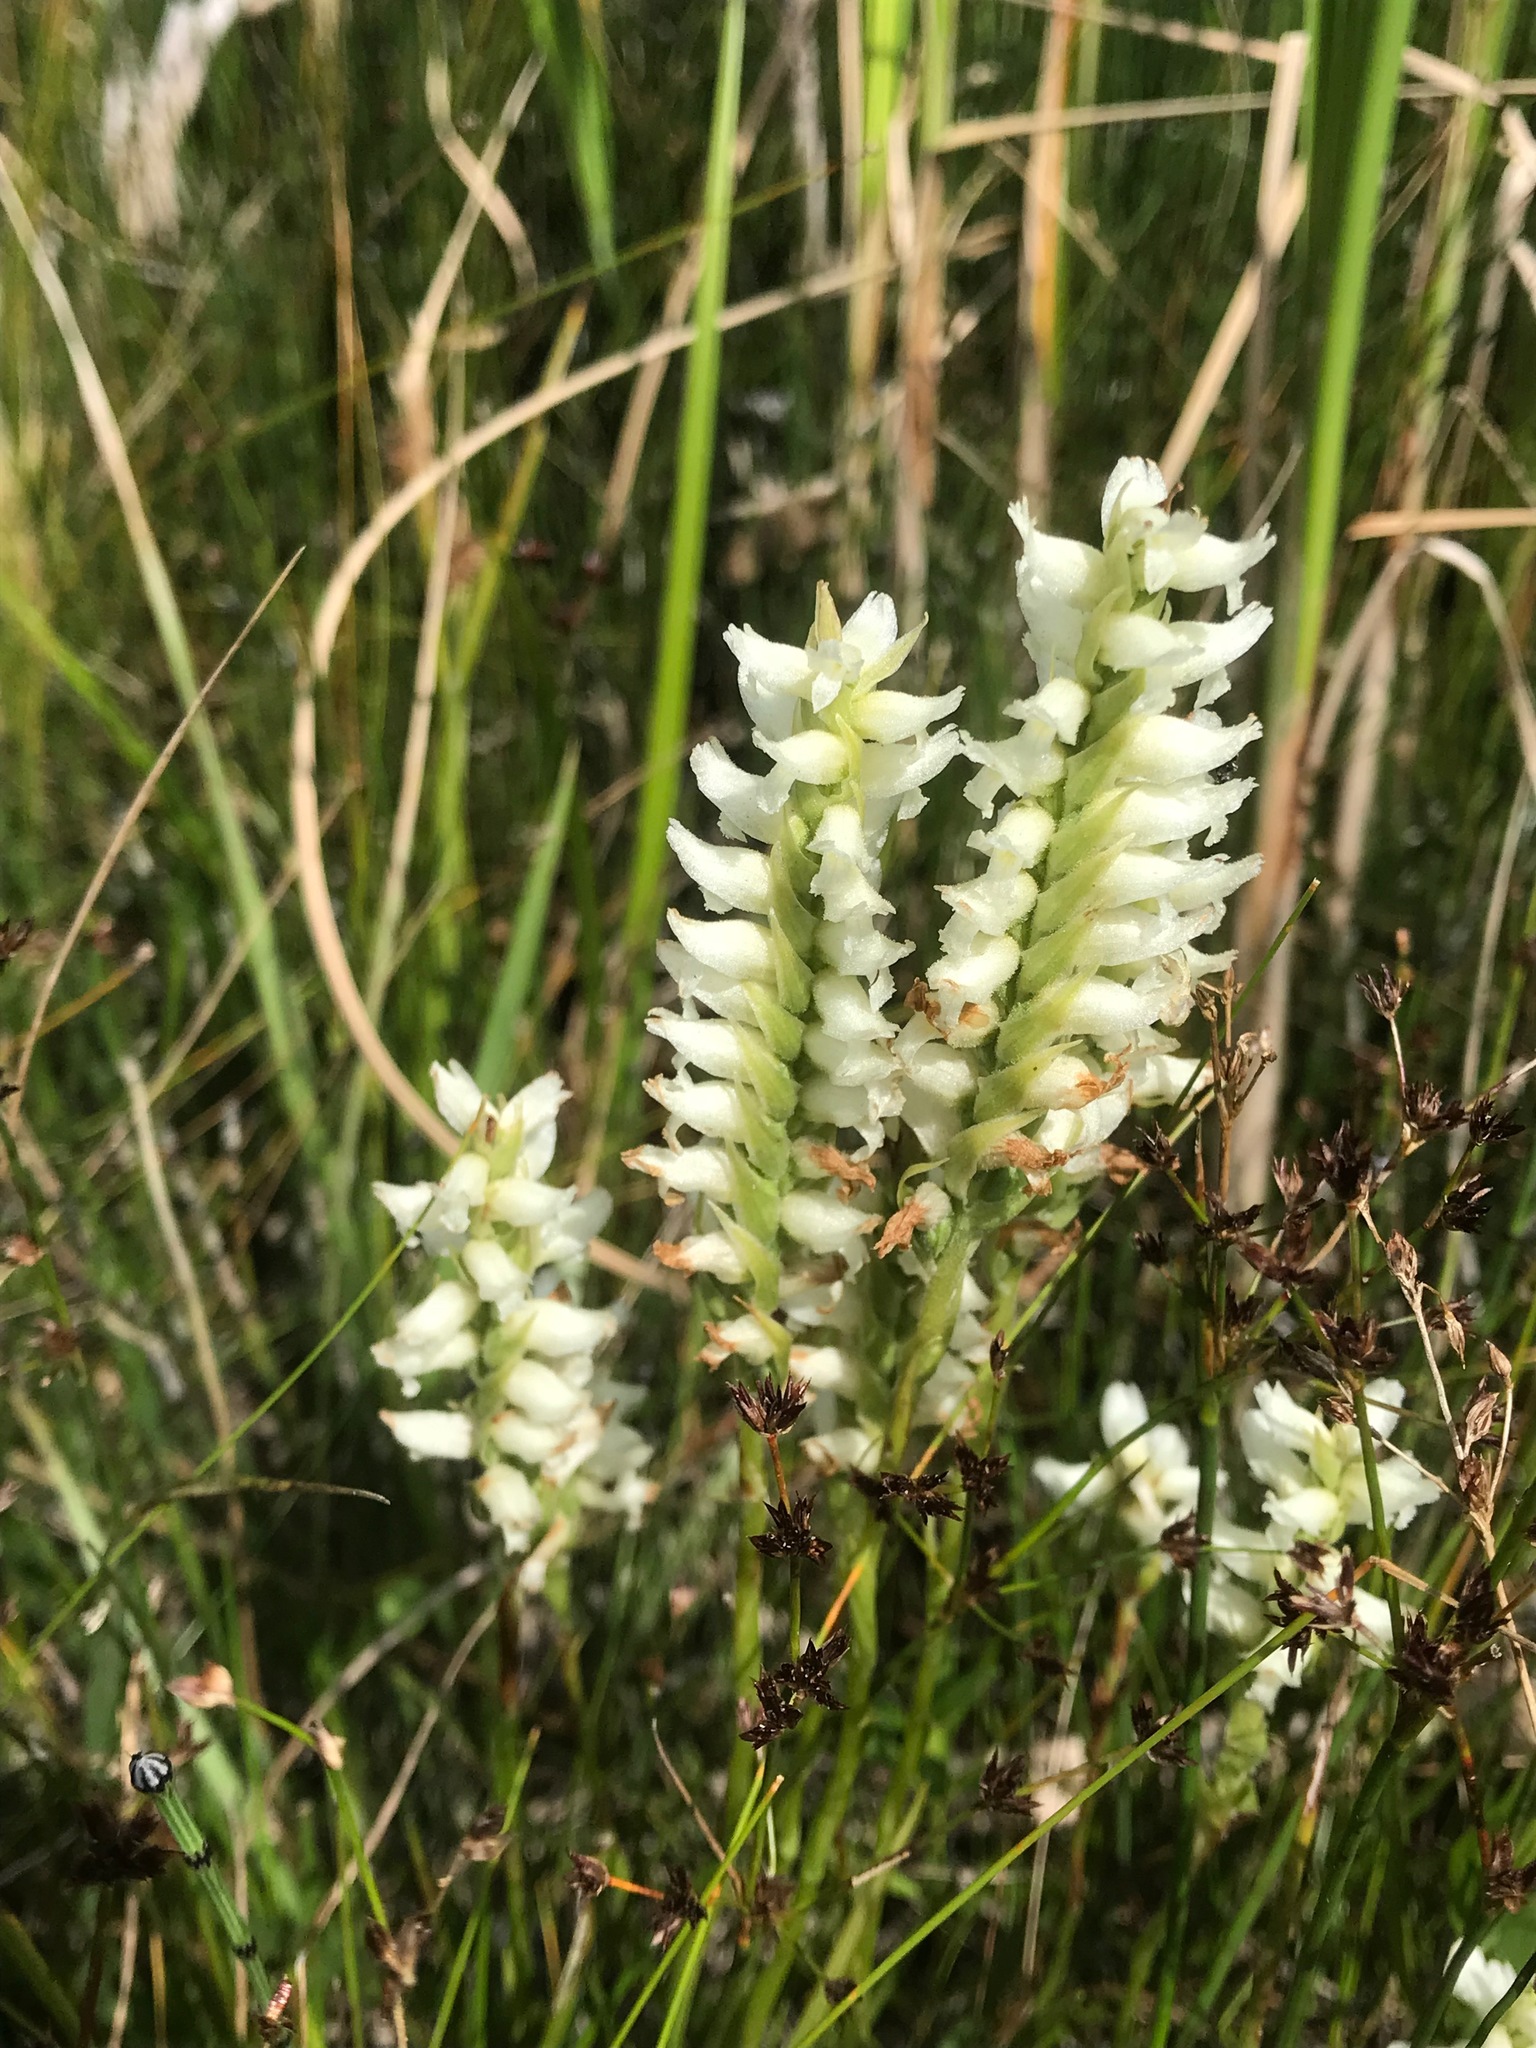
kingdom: Plantae
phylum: Tracheophyta
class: Liliopsida
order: Asparagales
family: Orchidaceae
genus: Spiranthes
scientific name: Spiranthes romanzoffiana
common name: Irish lady's-tresses
